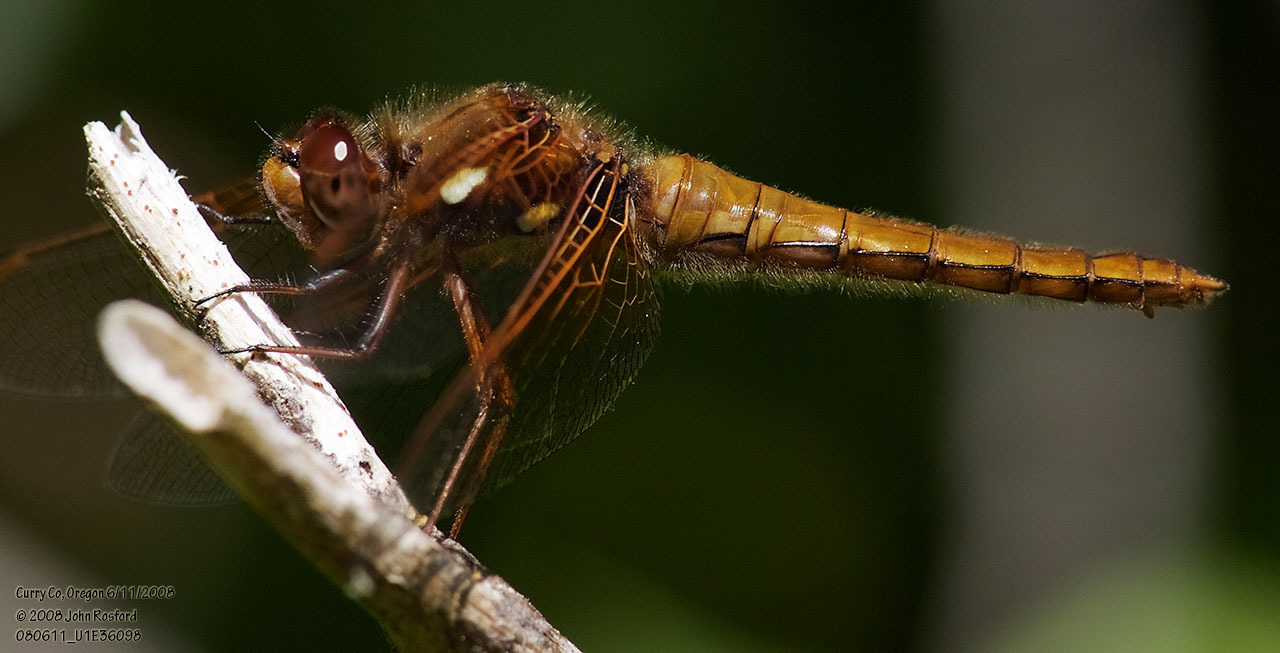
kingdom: Animalia
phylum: Arthropoda
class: Insecta
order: Odonata
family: Libellulidae
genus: Sympetrum
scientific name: Sympetrum illotum
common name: Cardinal meadowhawk
